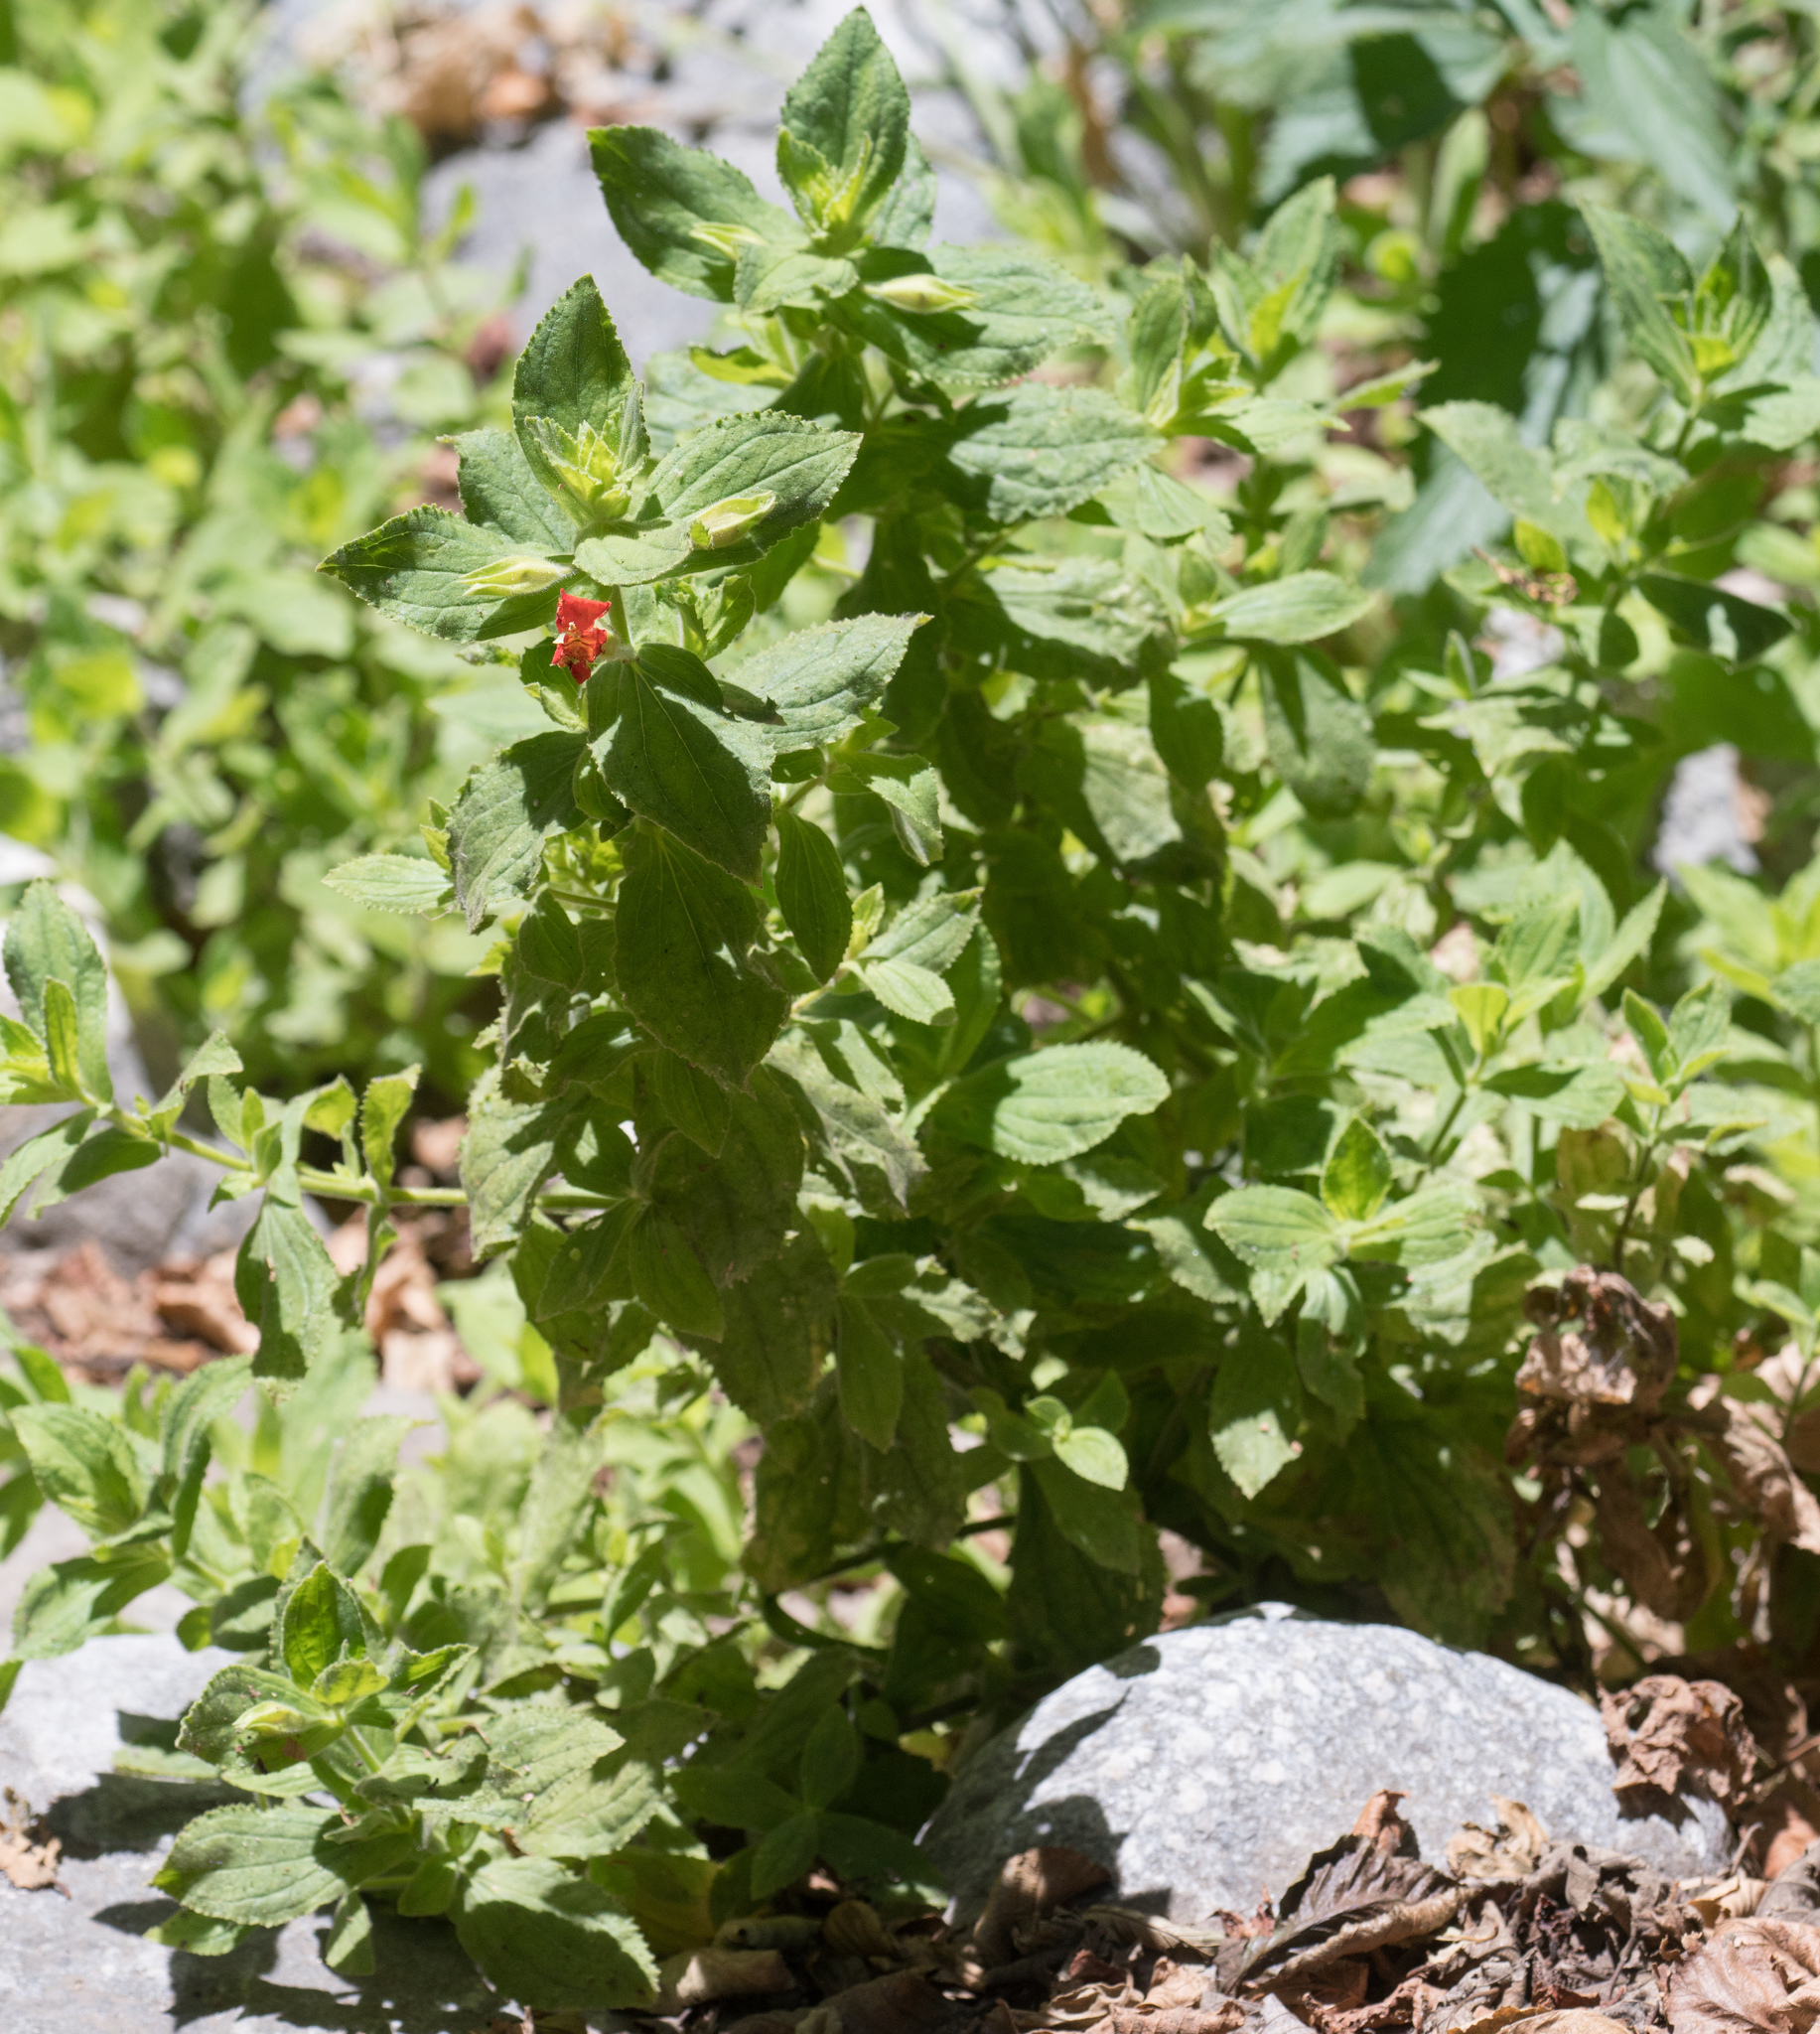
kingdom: Plantae
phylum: Tracheophyta
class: Magnoliopsida
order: Lamiales
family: Phrymaceae
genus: Erythranthe
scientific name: Erythranthe cardinalis
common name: Scarlet monkey-flower
